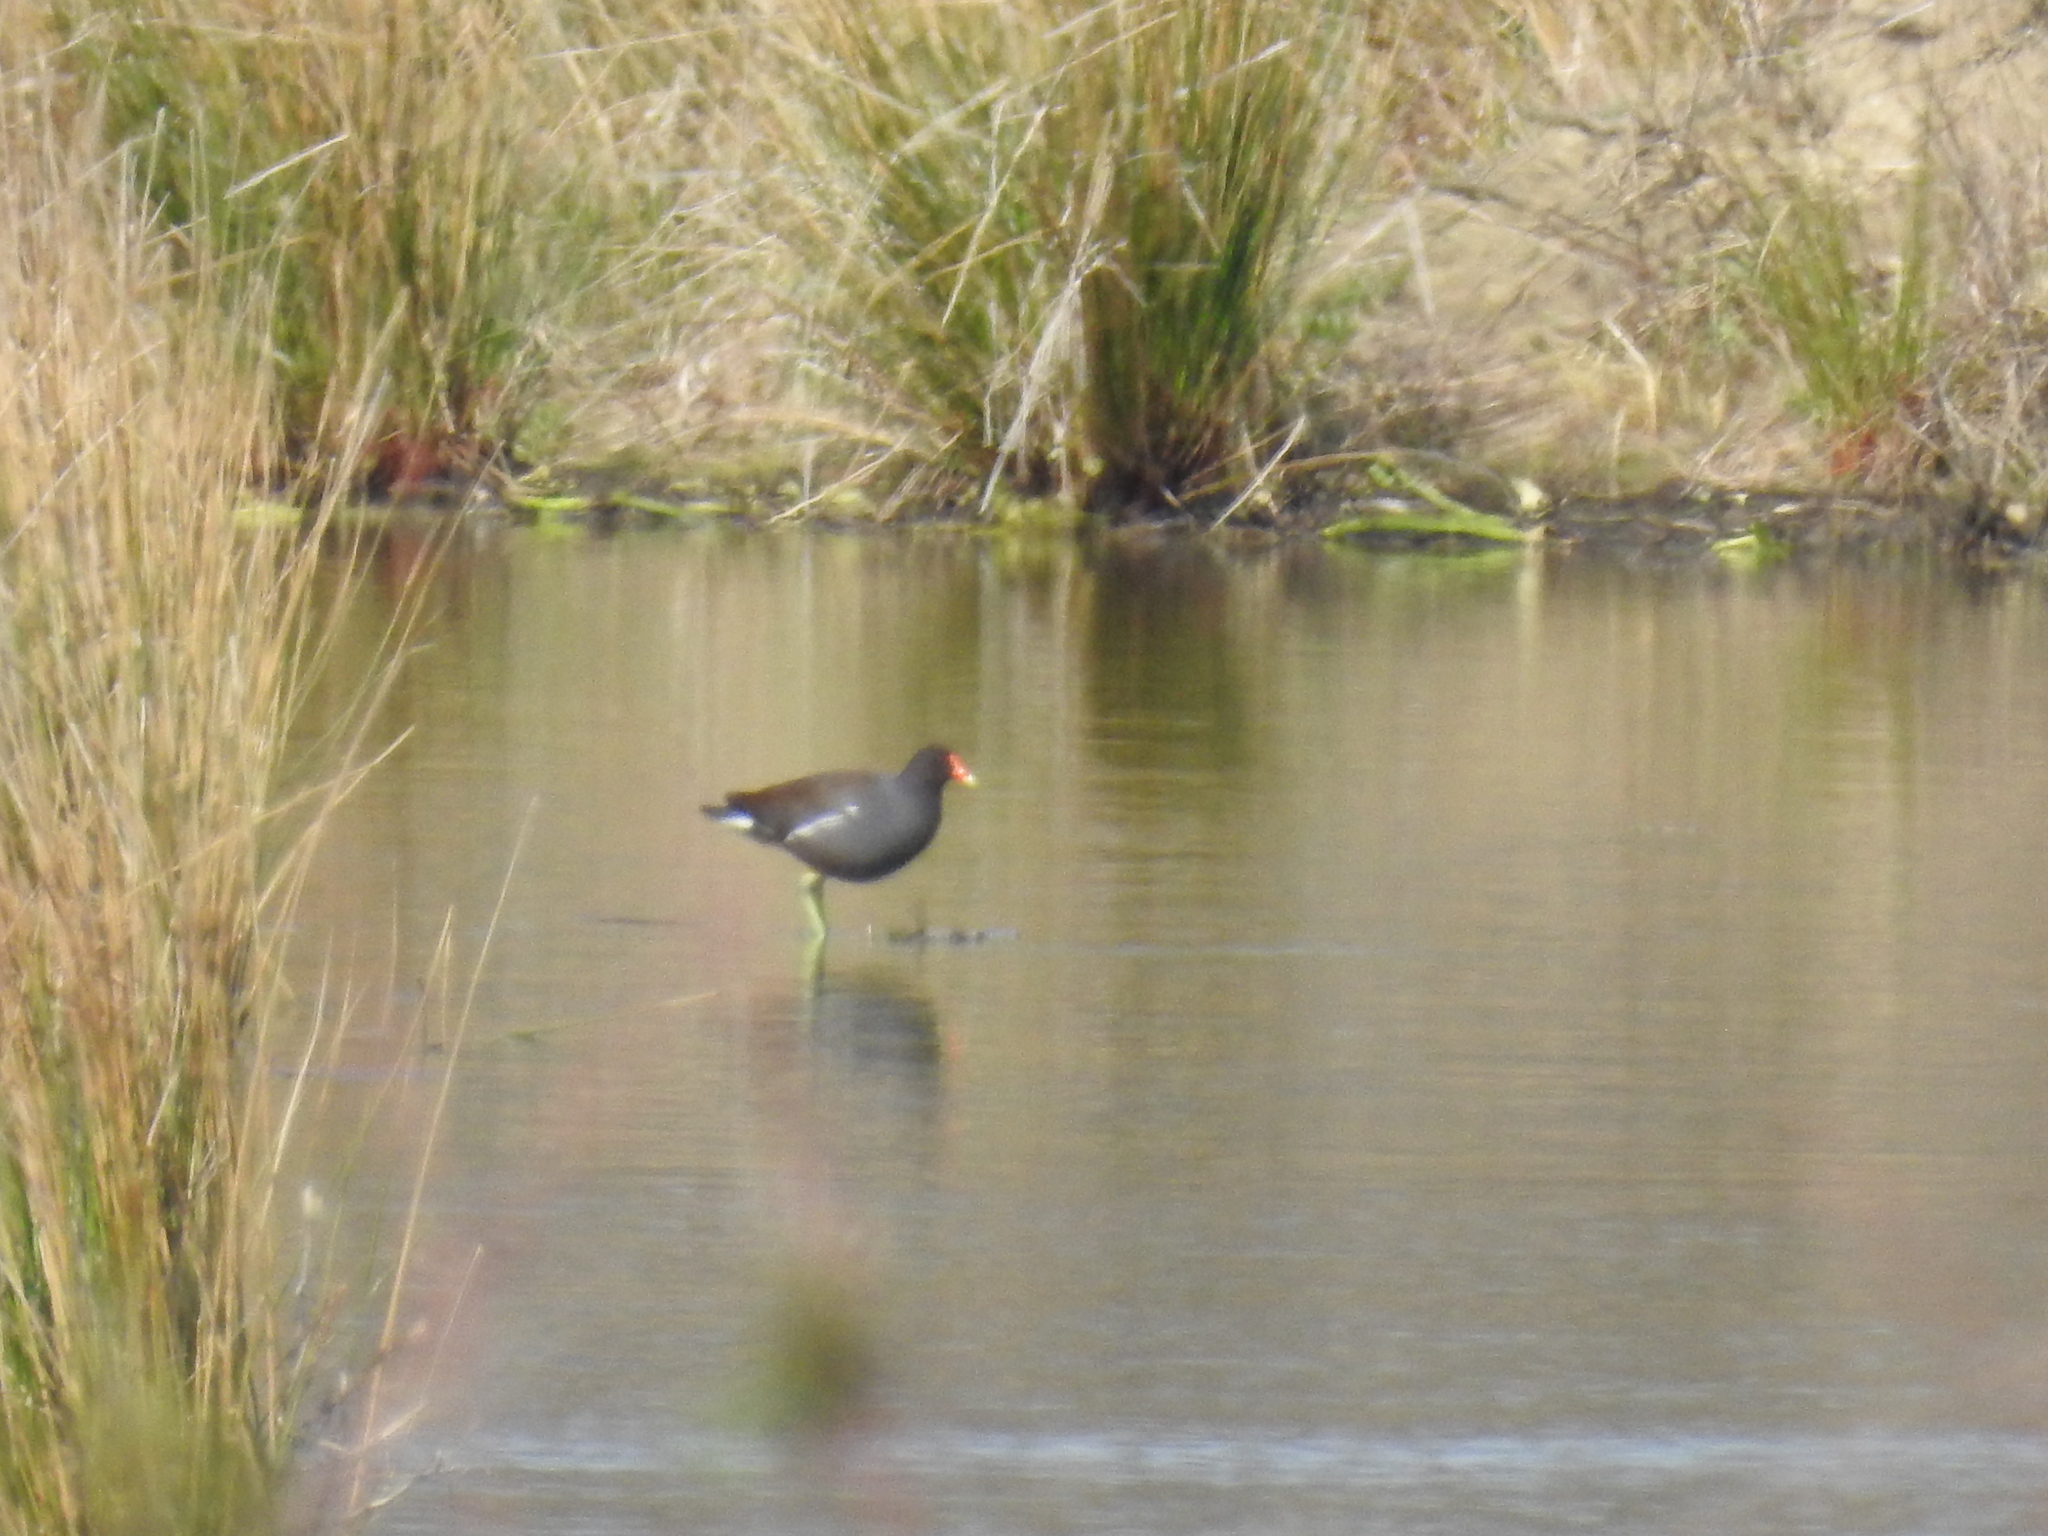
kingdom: Animalia
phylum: Chordata
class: Aves
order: Gruiformes
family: Rallidae
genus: Gallinula
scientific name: Gallinula chloropus
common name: Common moorhen
